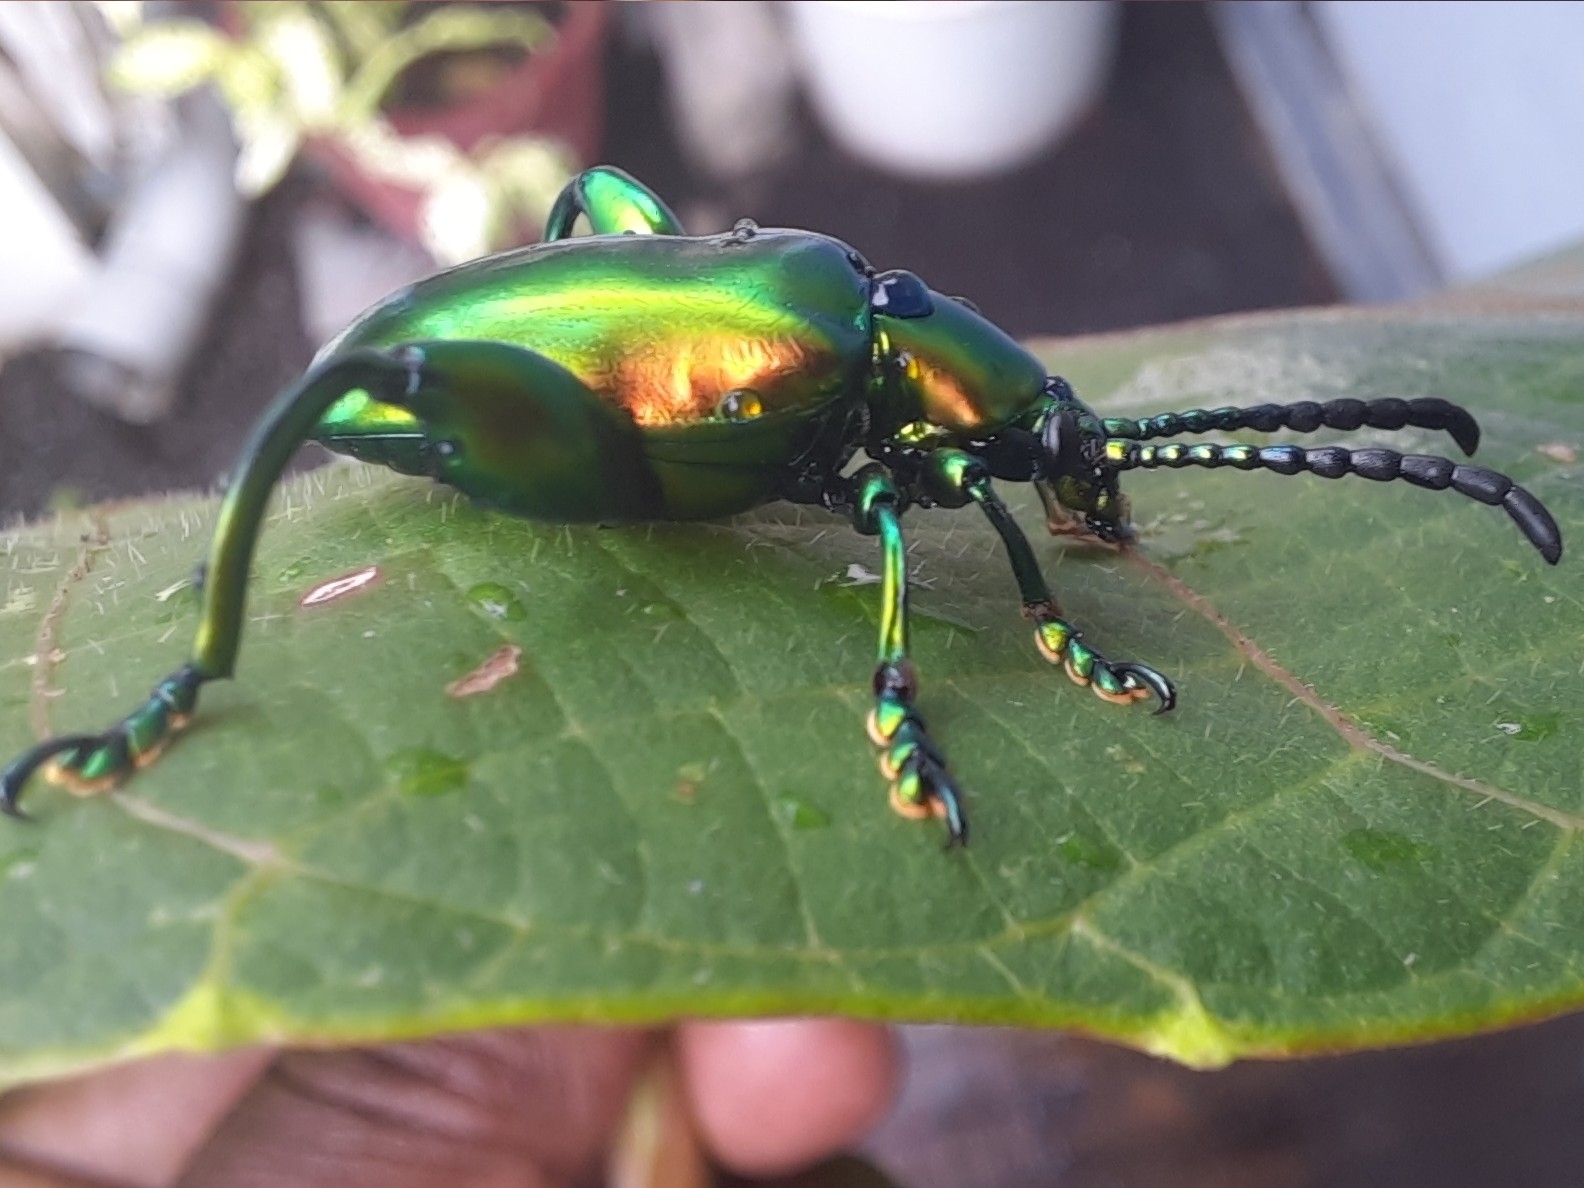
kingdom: Animalia
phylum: Arthropoda
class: Insecta
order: Coleoptera
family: Chrysomelidae
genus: Sagra
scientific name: Sagra femorata
